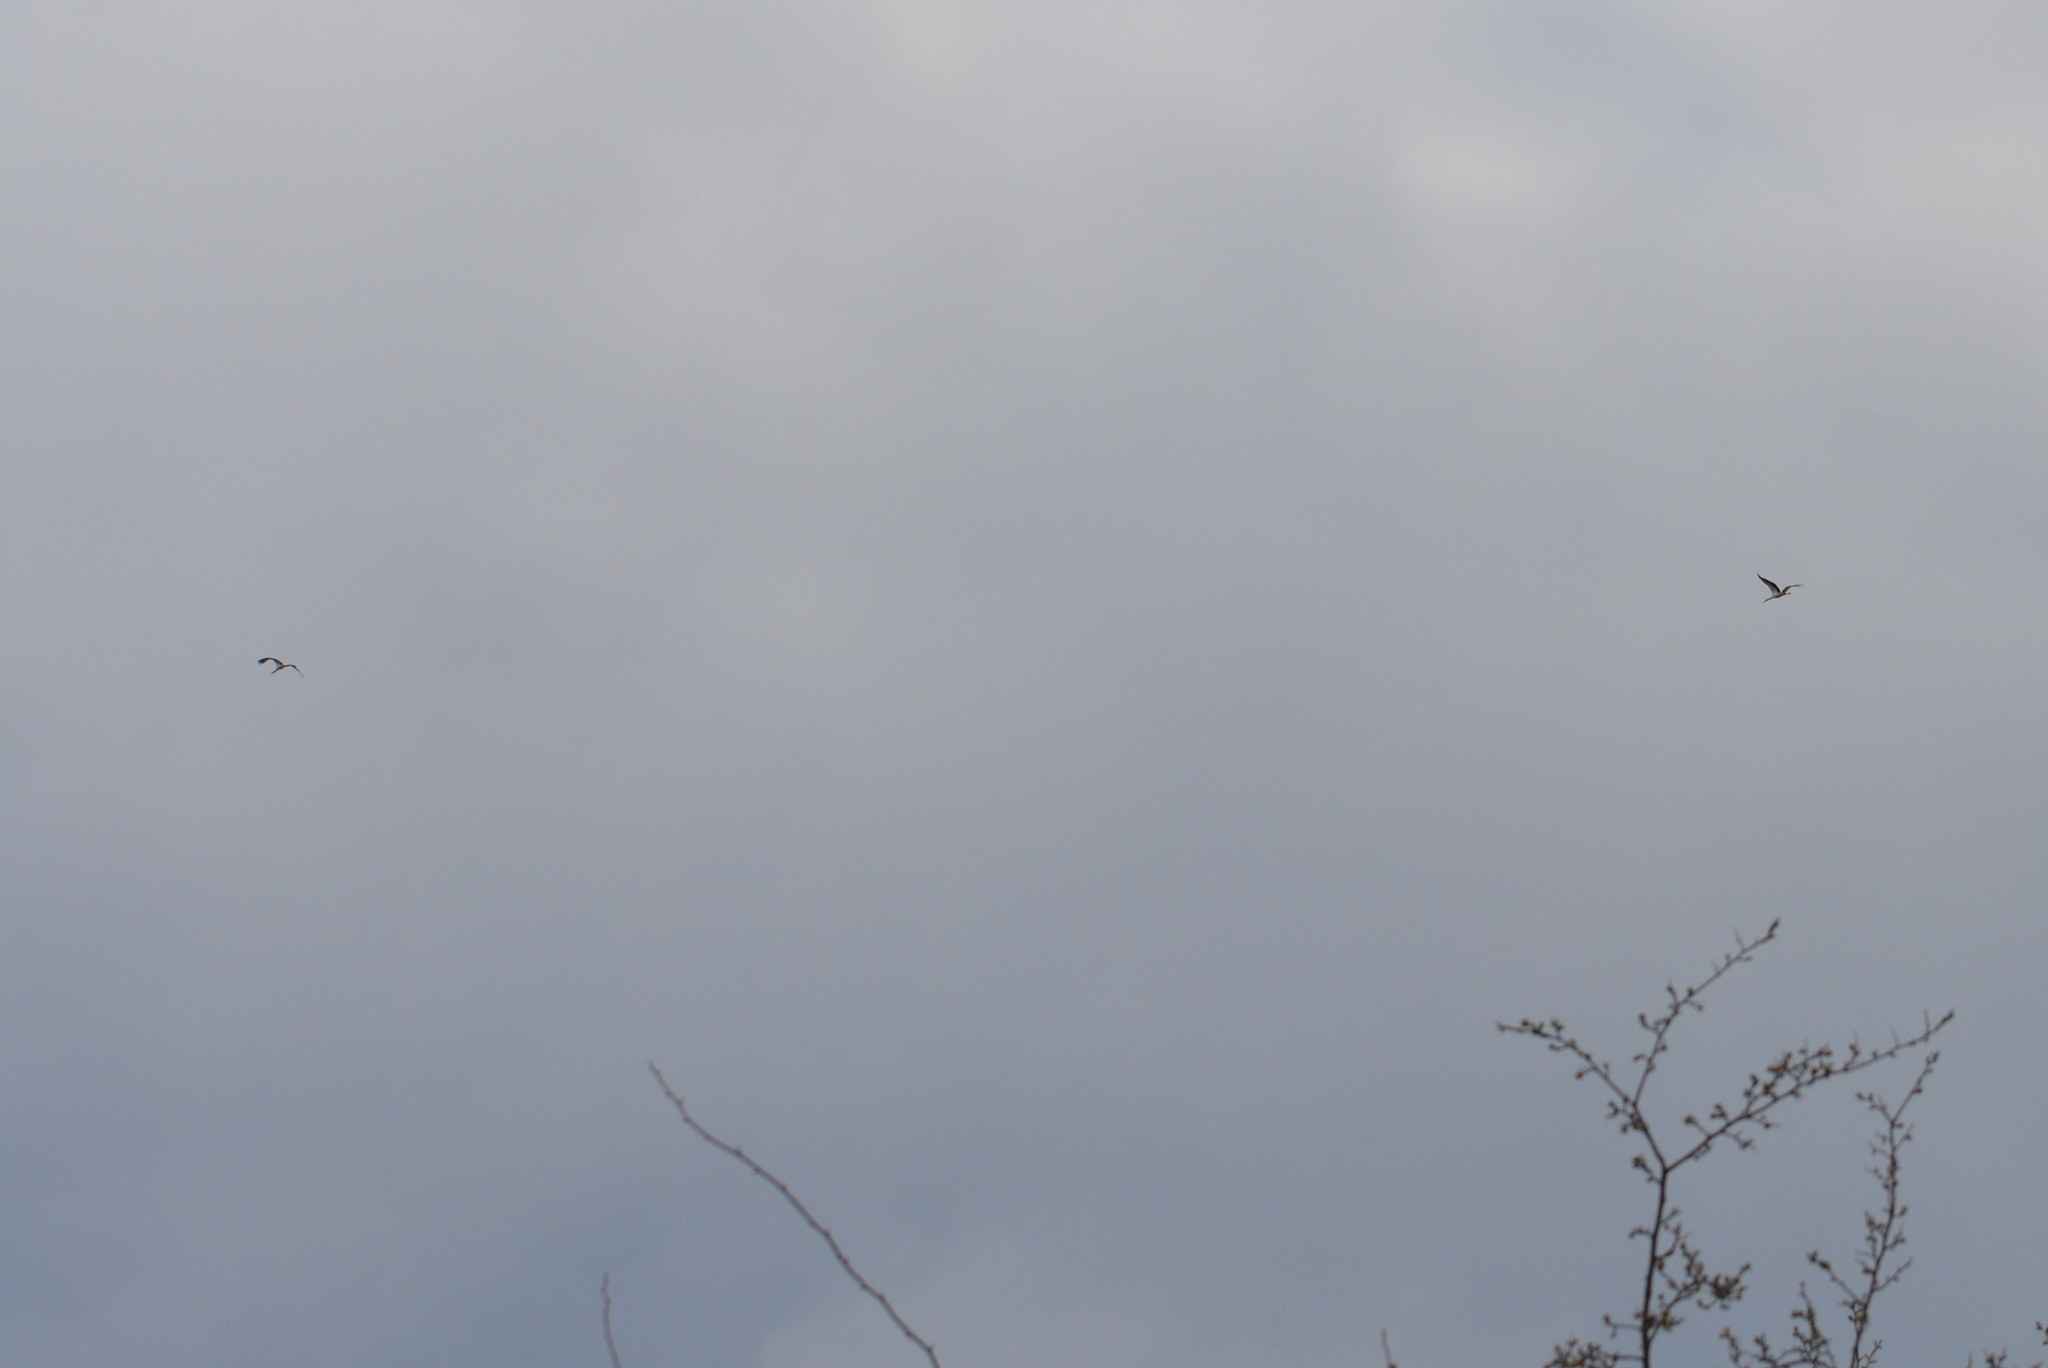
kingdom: Animalia
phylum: Chordata
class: Aves
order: Ciconiiformes
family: Ciconiidae
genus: Ciconia
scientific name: Ciconia ciconia
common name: White stork
